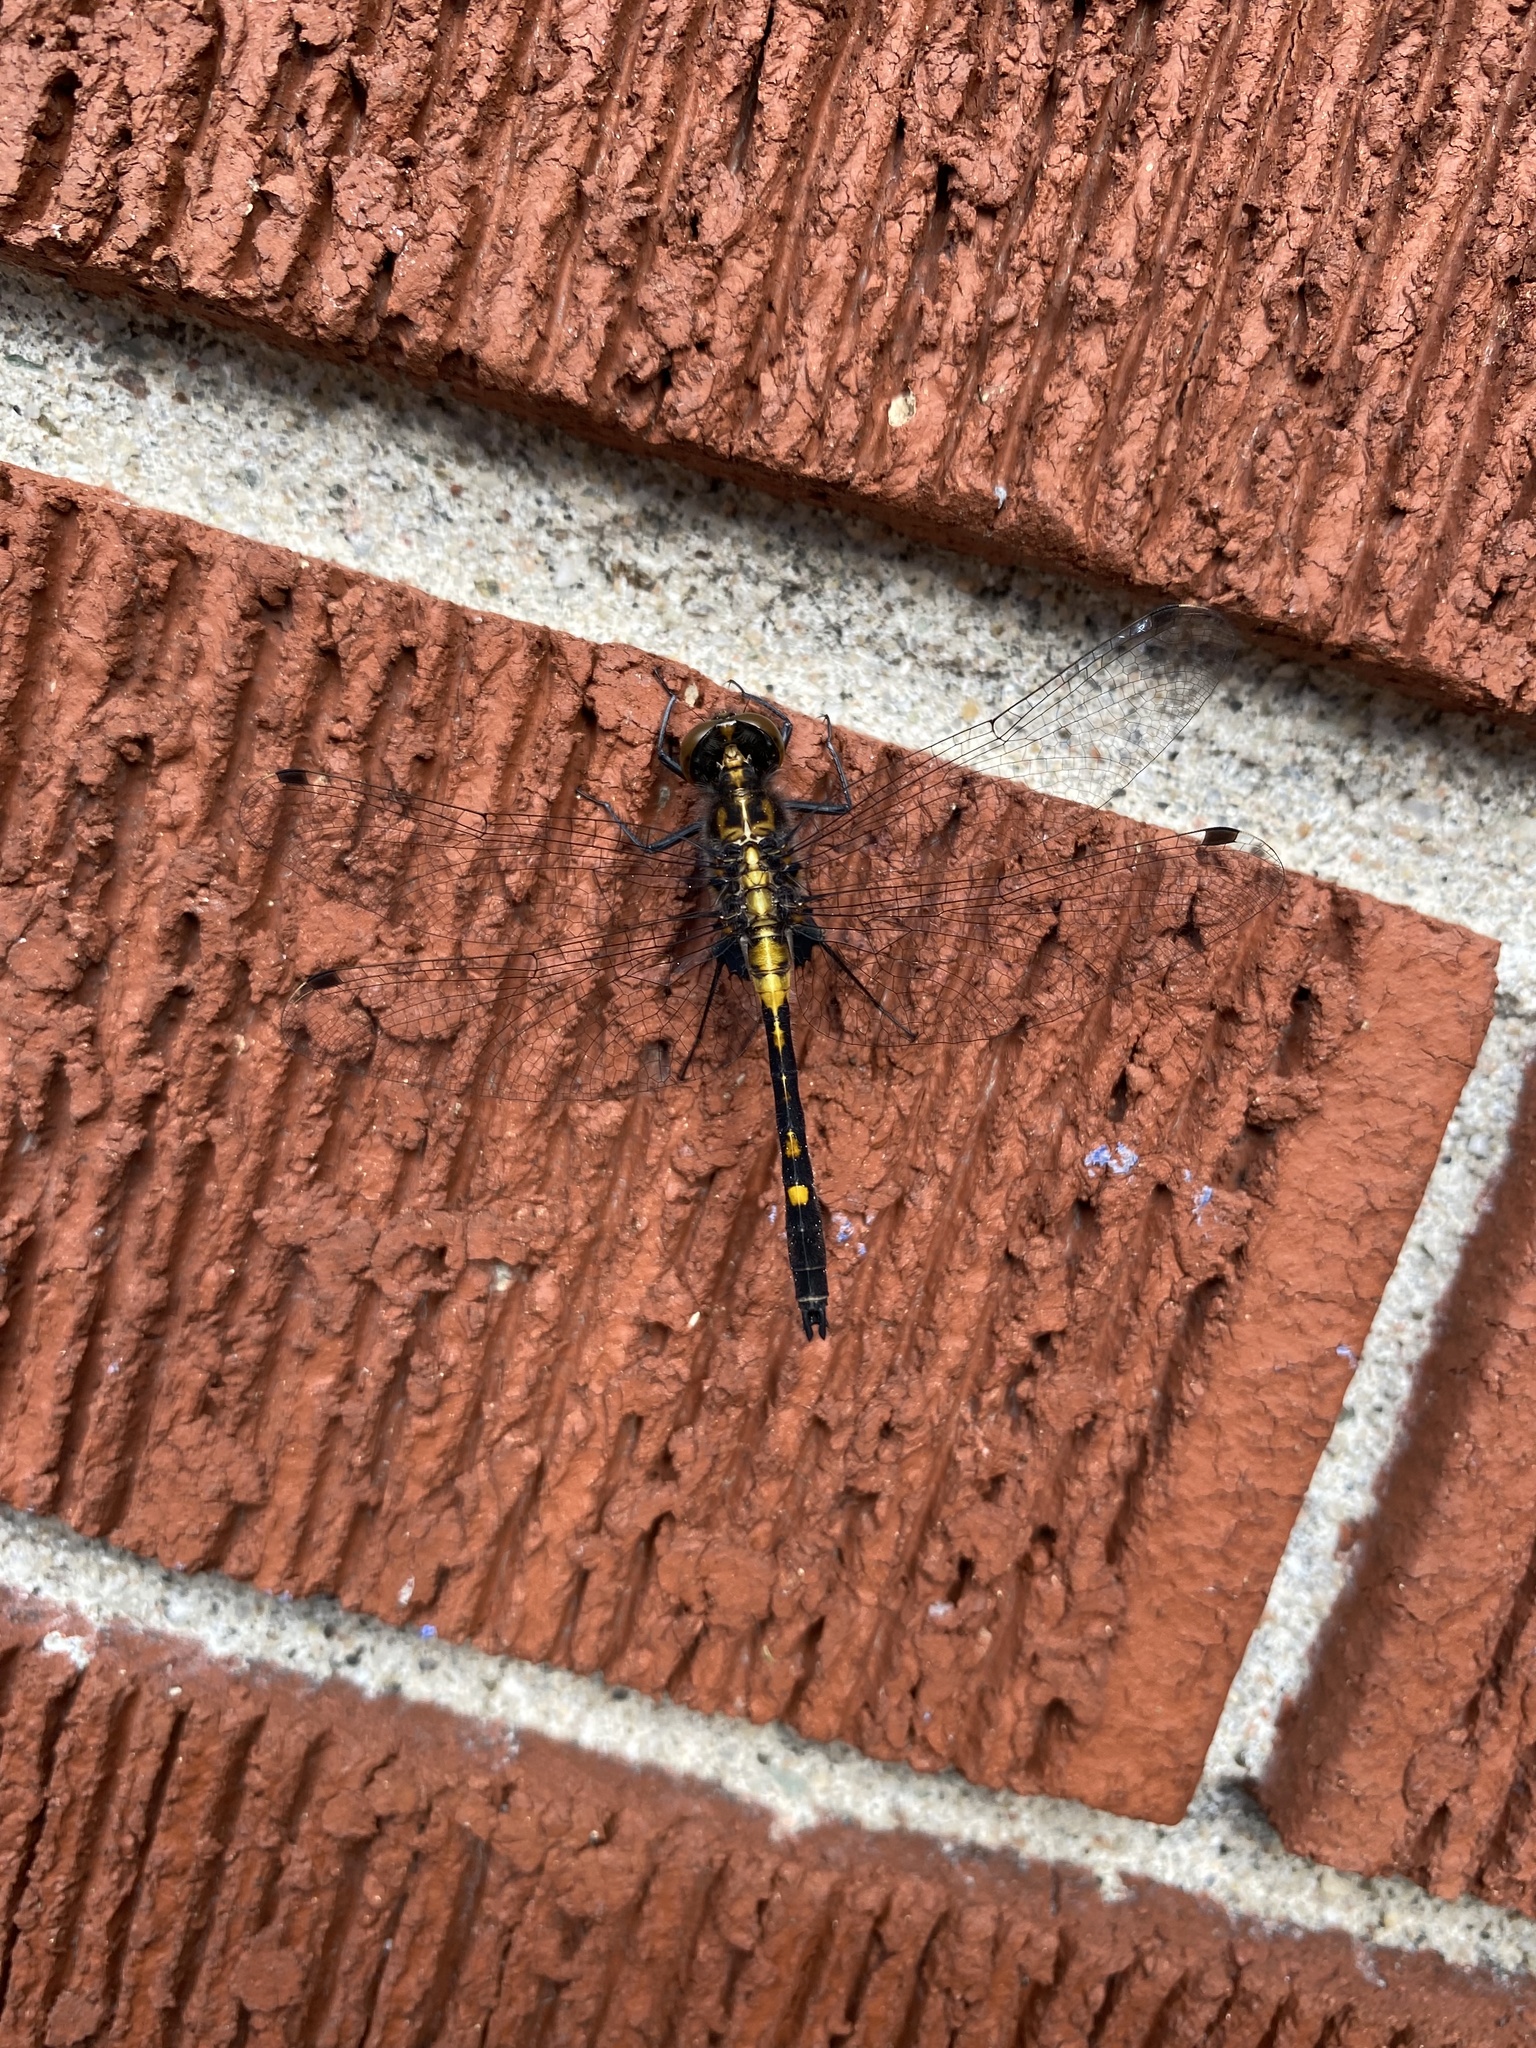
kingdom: Animalia
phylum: Arthropoda
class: Insecta
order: Odonata
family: Libellulidae
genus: Leucorrhinia
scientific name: Leucorrhinia intacta
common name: Dot-tailed whiteface
